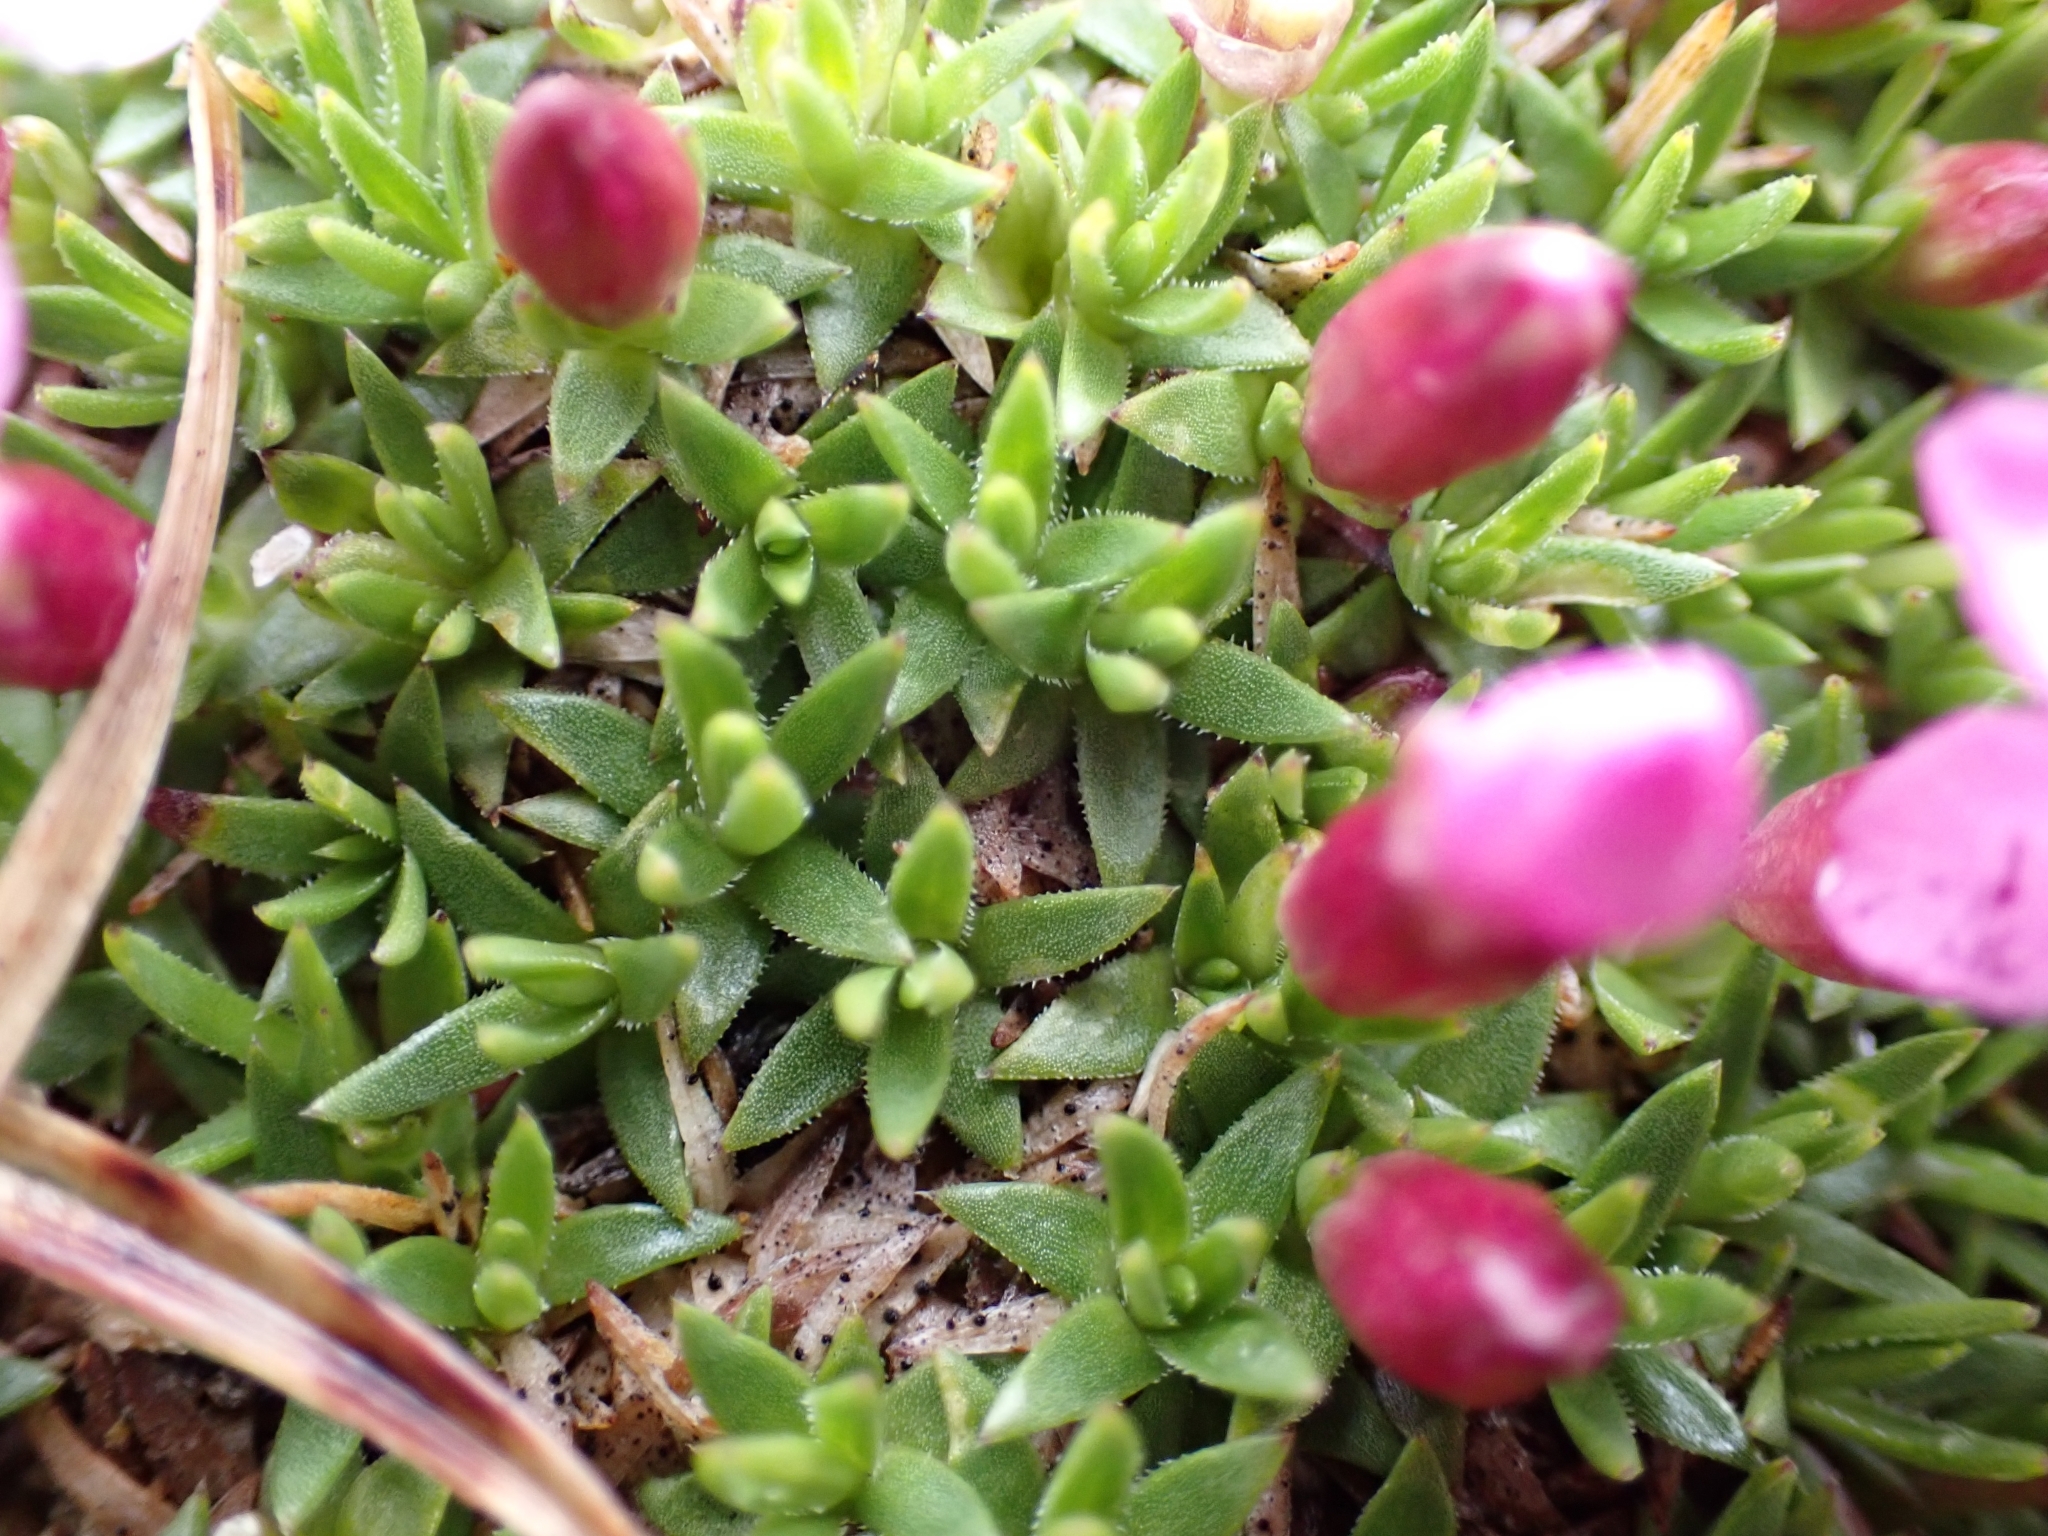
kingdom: Plantae
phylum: Tracheophyta
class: Magnoliopsida
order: Caryophyllales
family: Caryophyllaceae
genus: Silene
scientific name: Silene acaulis
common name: Moss campion
